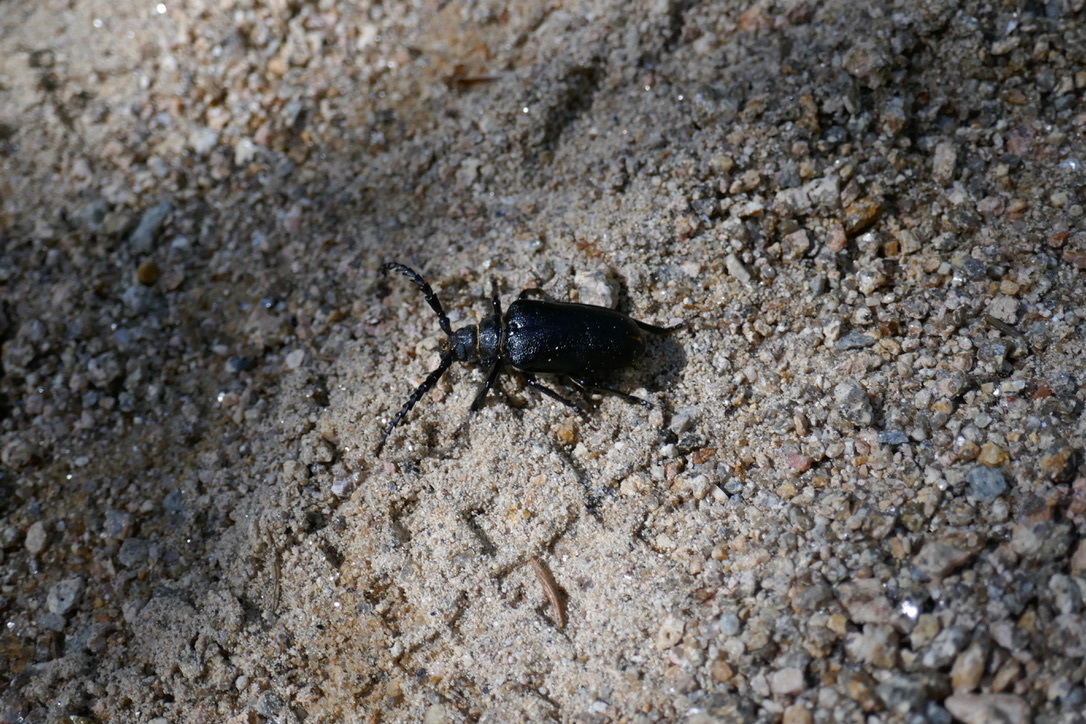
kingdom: Animalia
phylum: Arthropoda
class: Insecta
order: Coleoptera
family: Cerambycidae
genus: Prionus
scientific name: Prionus coriarius
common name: Tanner beetle
